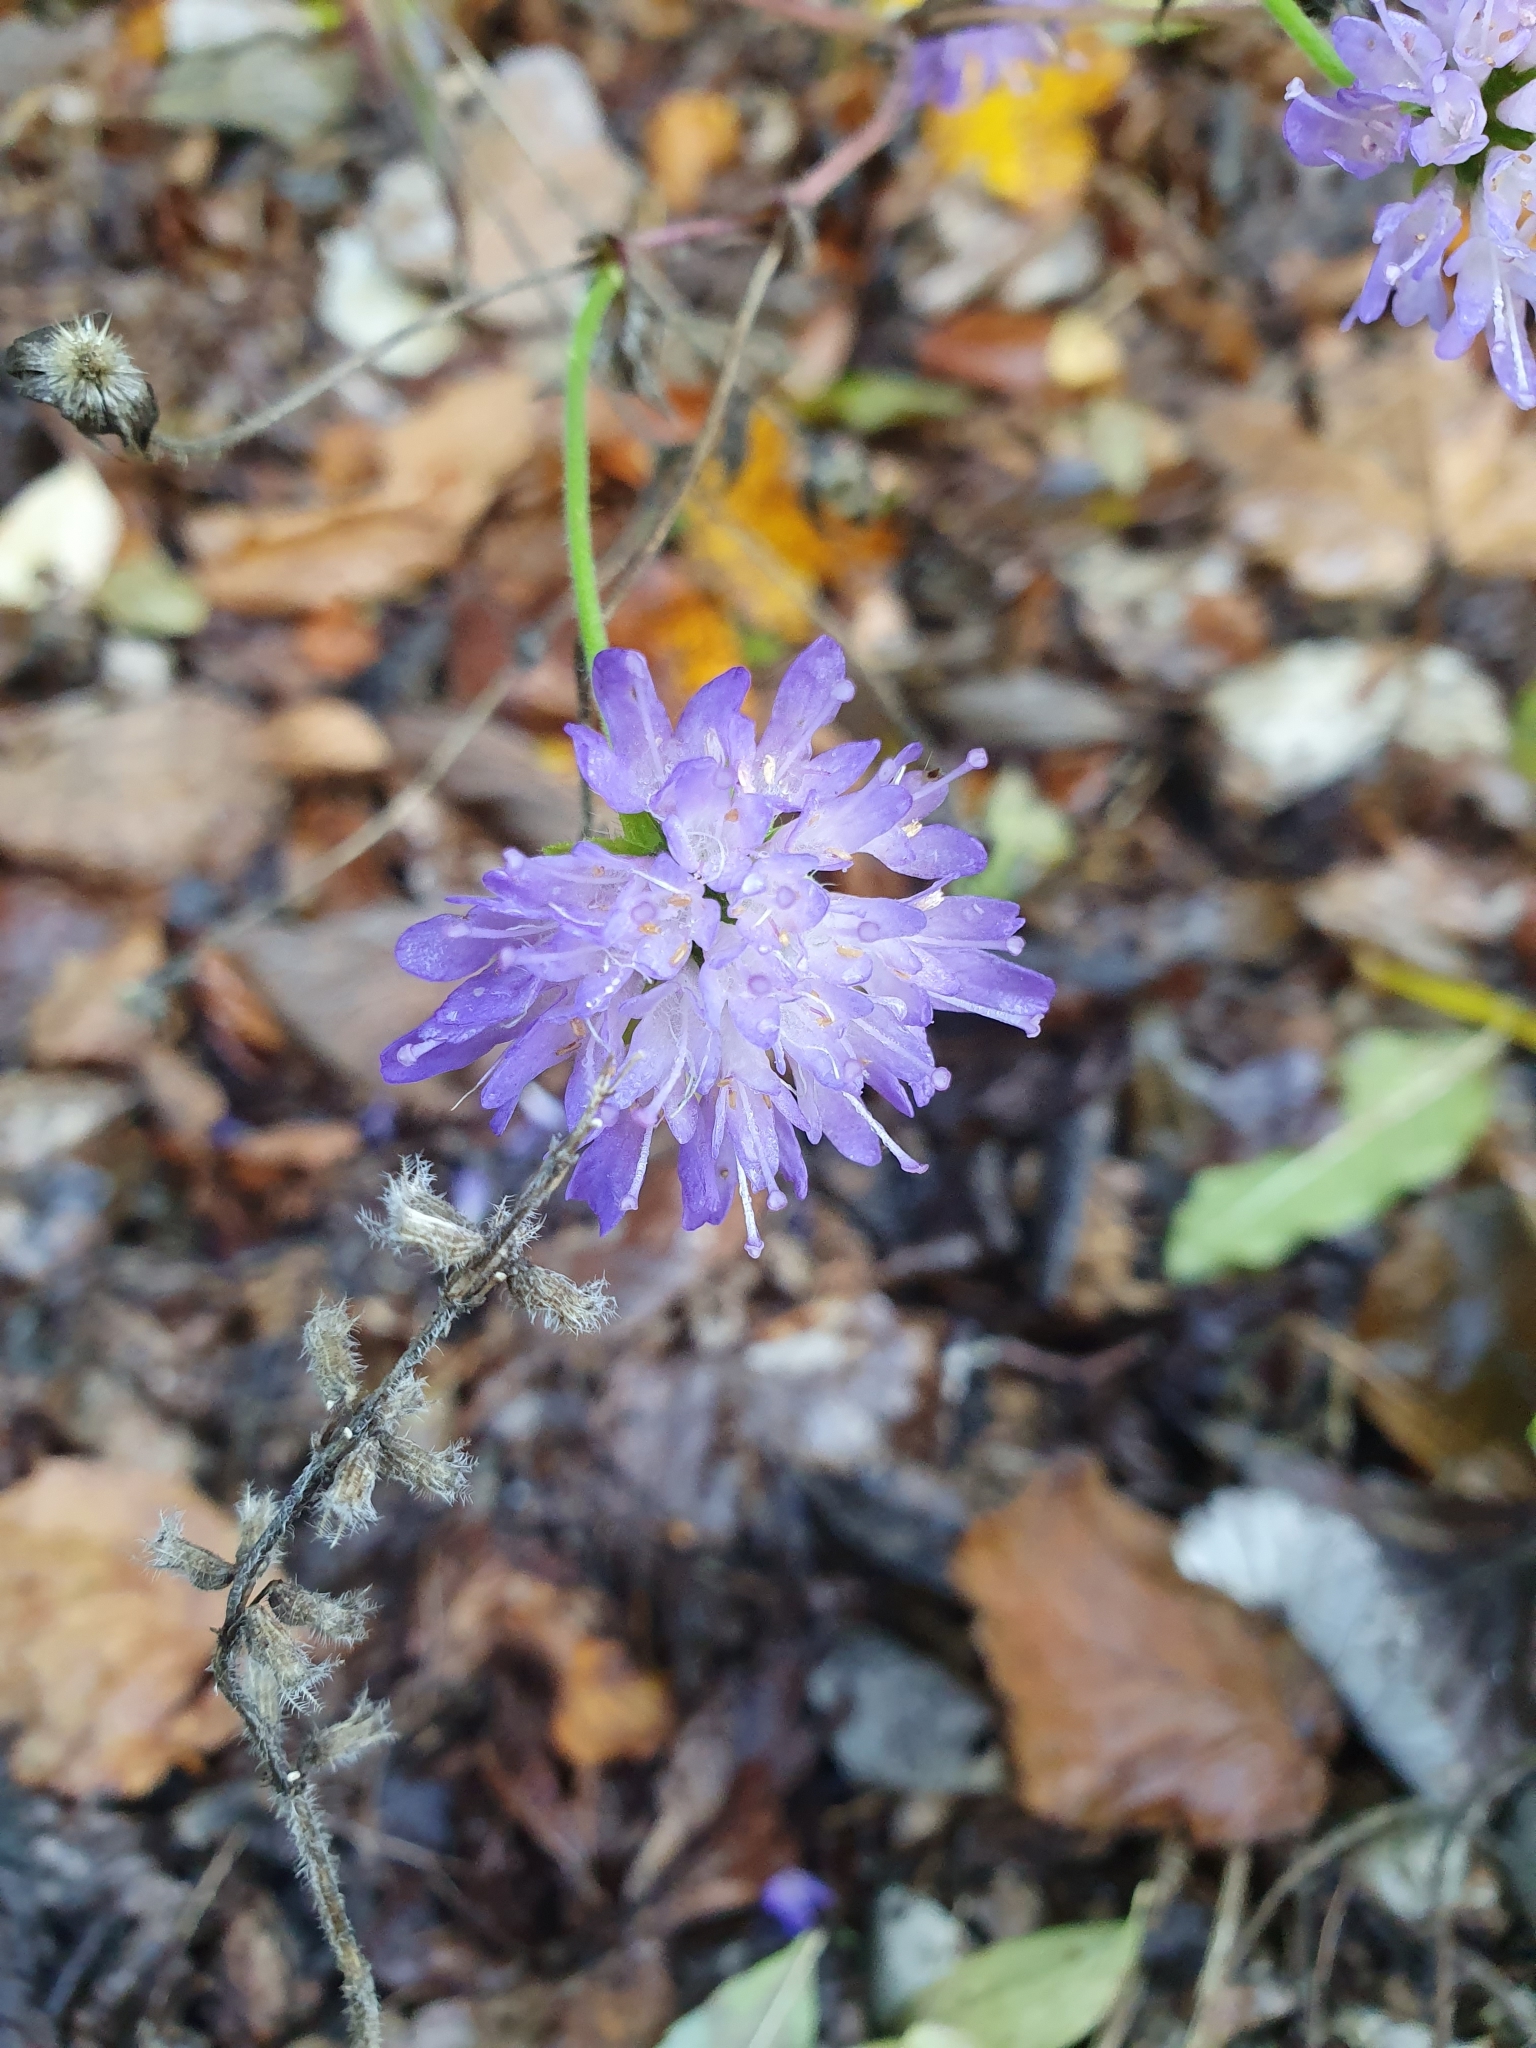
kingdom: Plantae
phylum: Tracheophyta
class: Magnoliopsida
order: Dipsacales
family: Caprifoliaceae
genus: Knautia
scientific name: Knautia dipsacifolia
